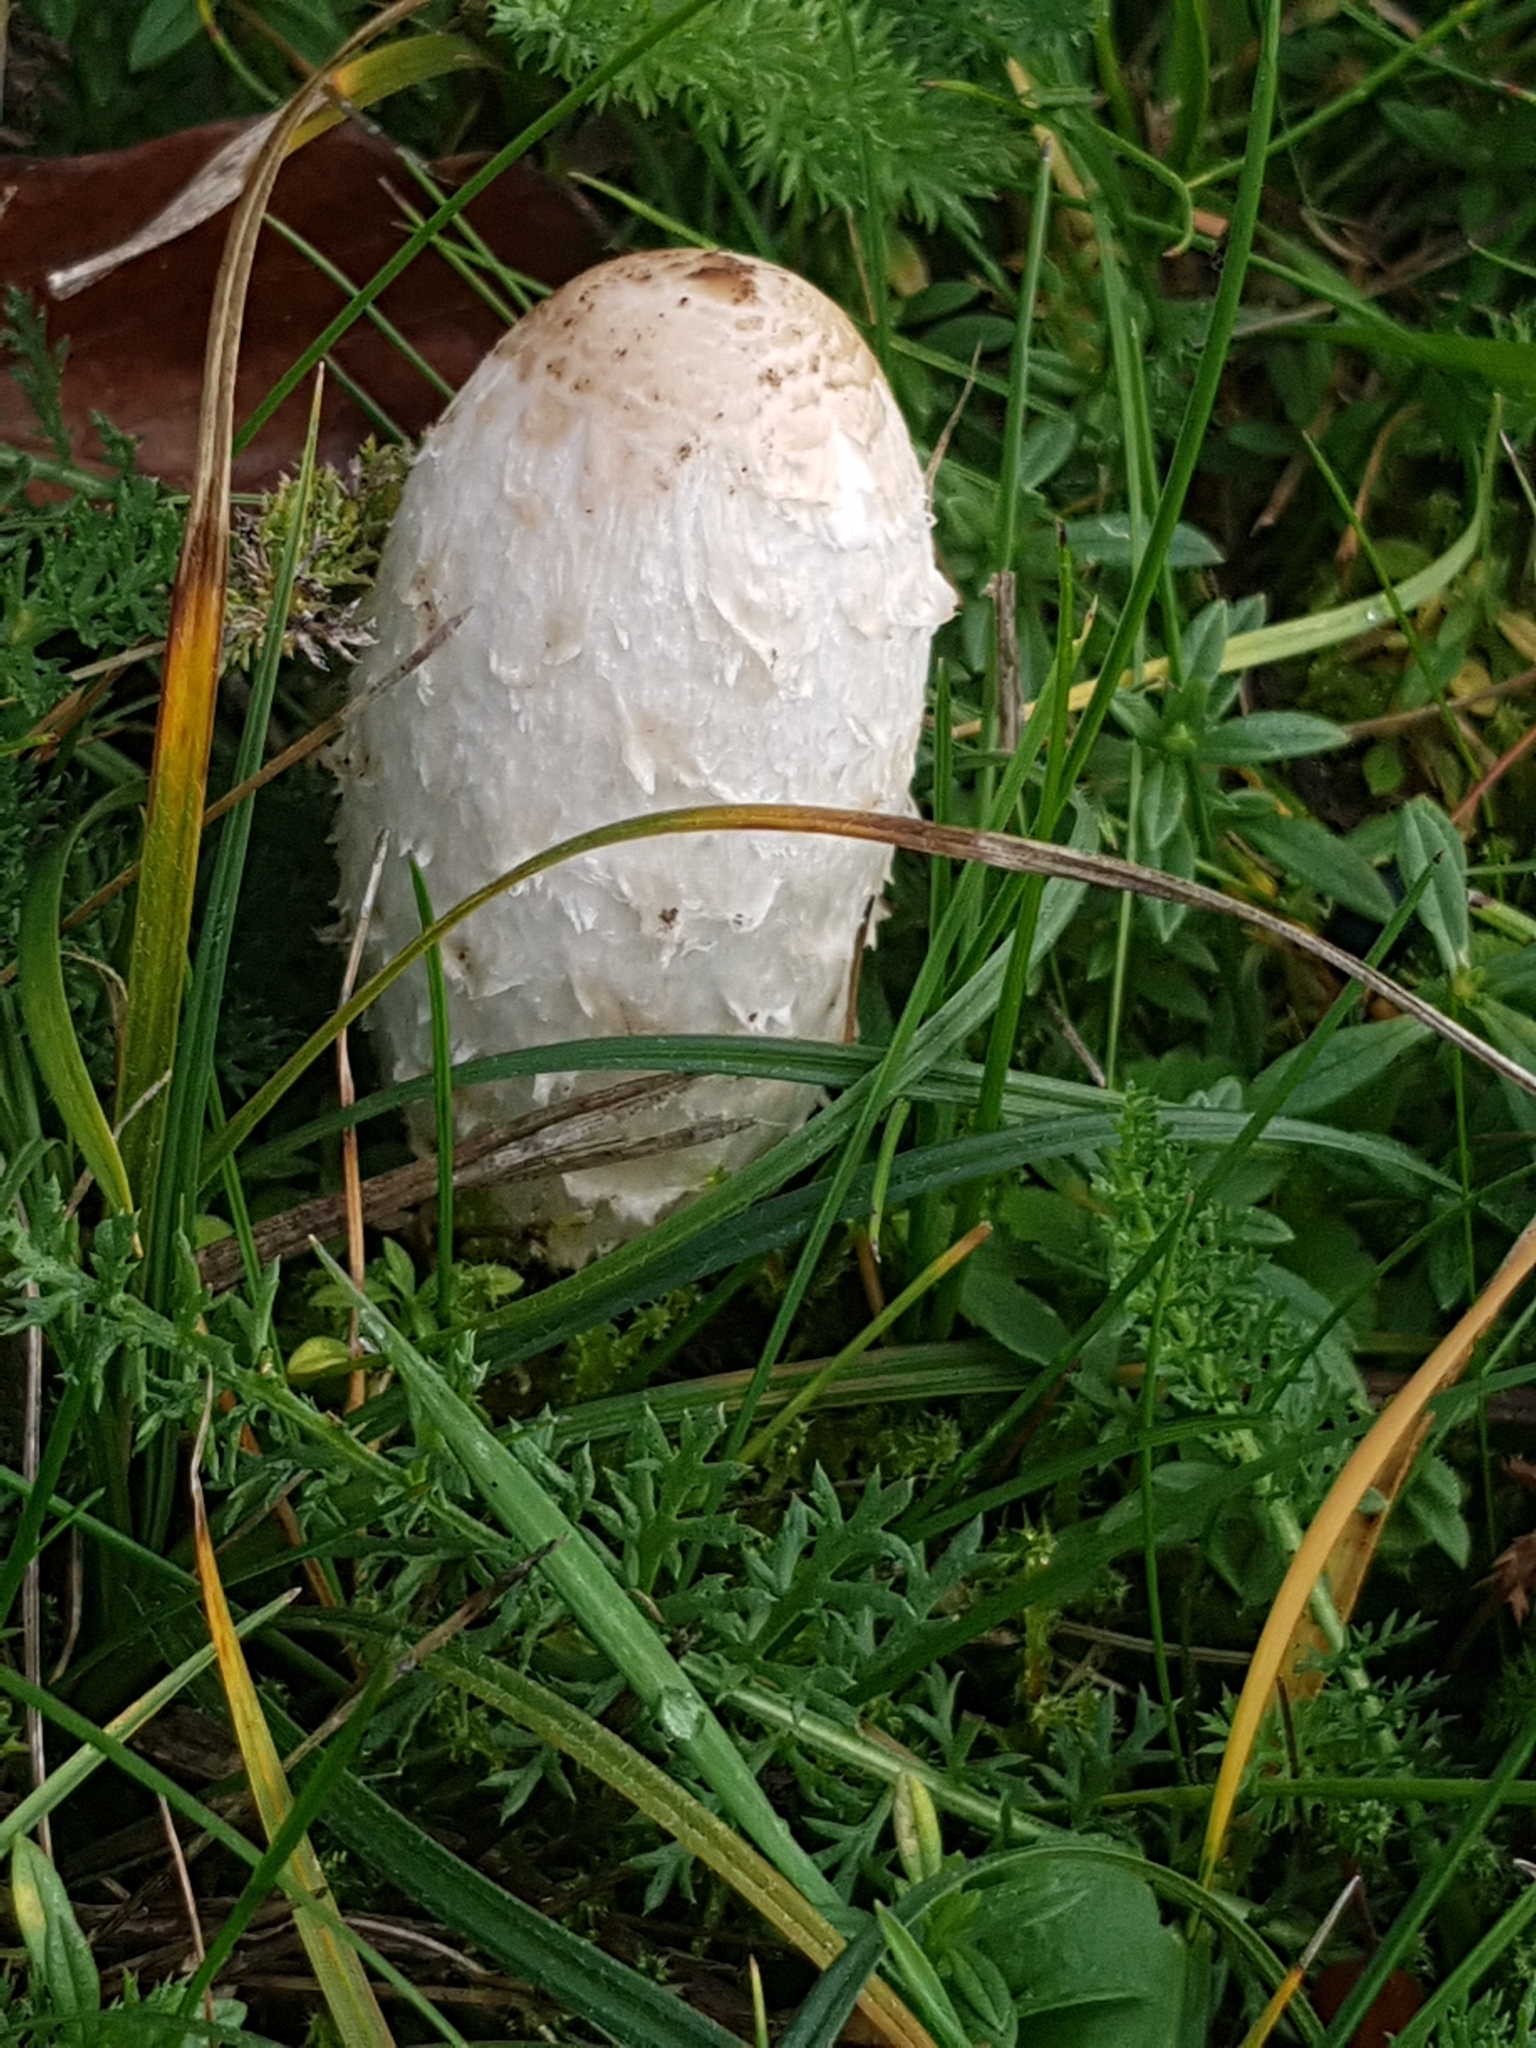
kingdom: Fungi
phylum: Basidiomycota
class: Agaricomycetes
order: Agaricales
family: Agaricaceae
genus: Coprinus
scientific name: Coprinus comatus
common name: Lawyer's wig
